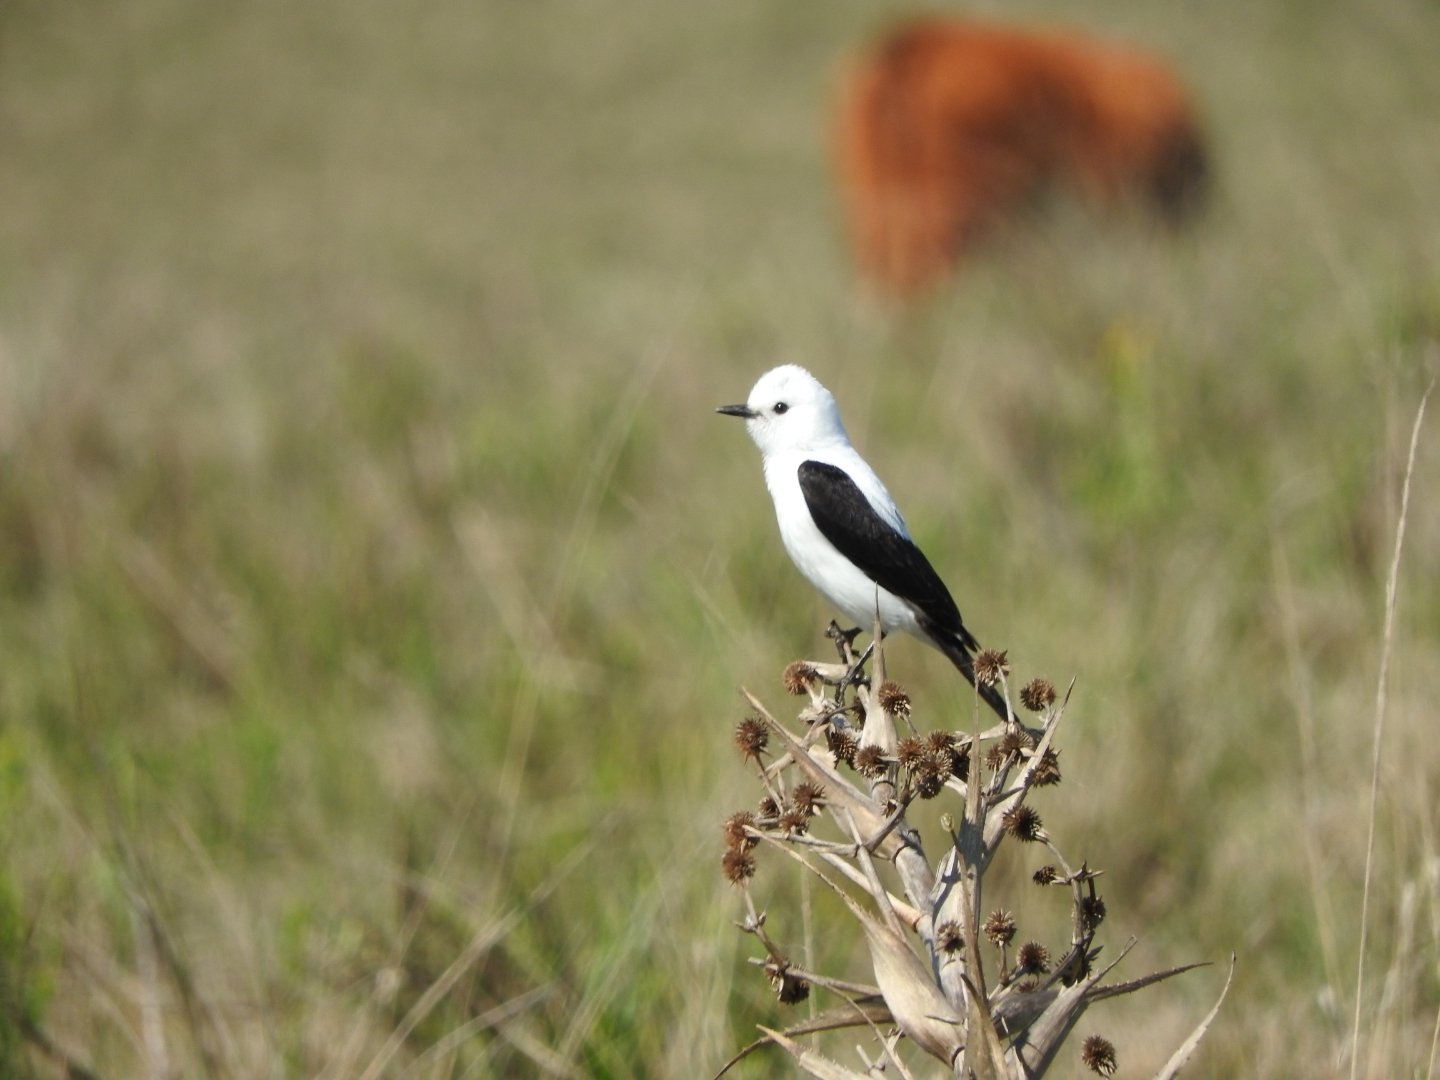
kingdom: Animalia
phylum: Chordata
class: Aves
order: Passeriformes
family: Tyrannidae
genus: Heteroxolmis
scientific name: Heteroxolmis dominicana
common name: Black-and-white monjita
